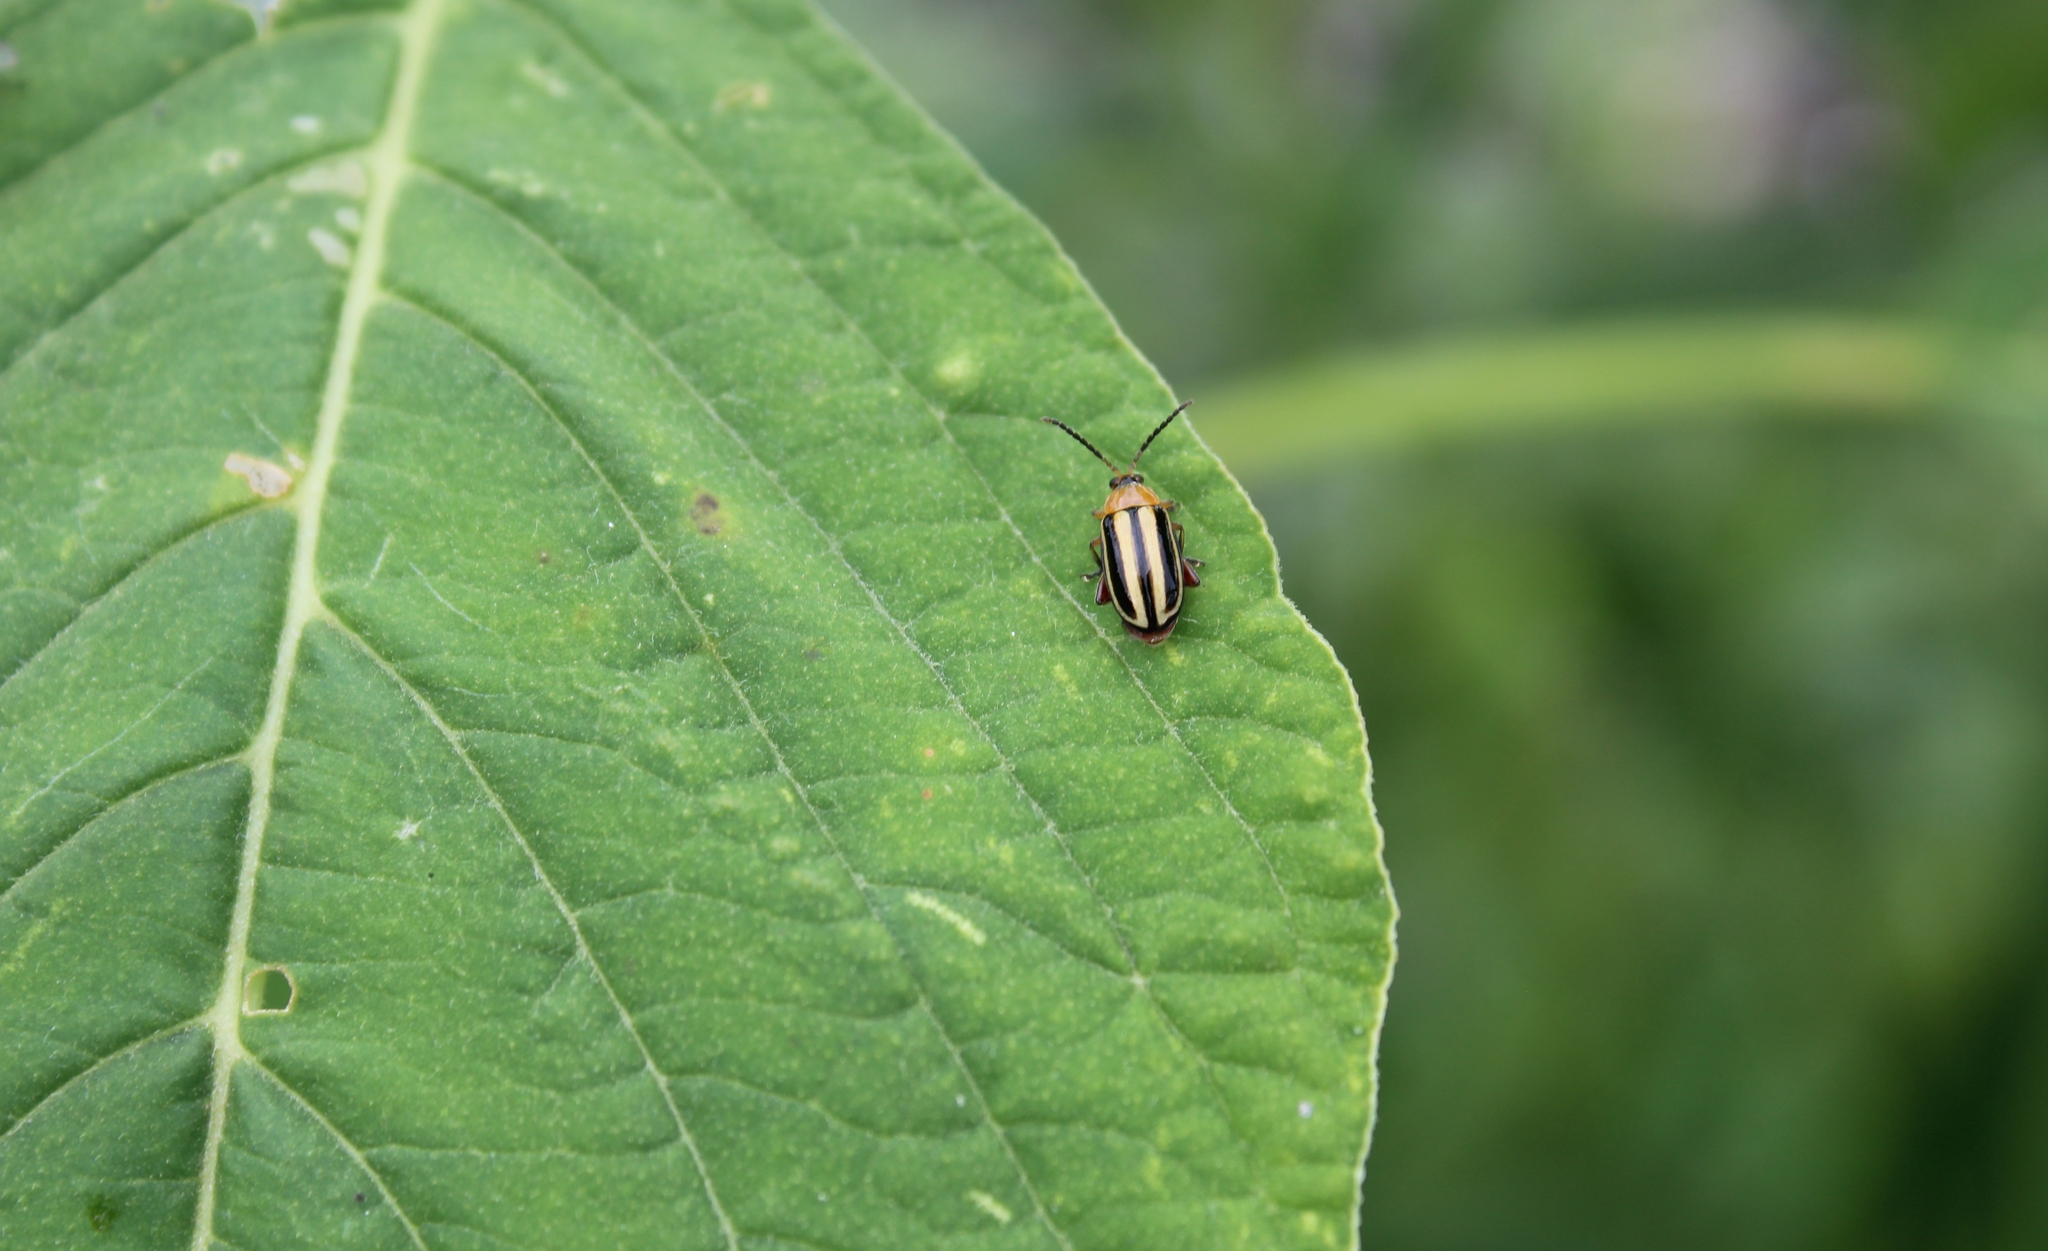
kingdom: Animalia
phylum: Arthropoda
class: Insecta
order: Coleoptera
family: Chrysomelidae
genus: Disonycha
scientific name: Disonycha glabrata
